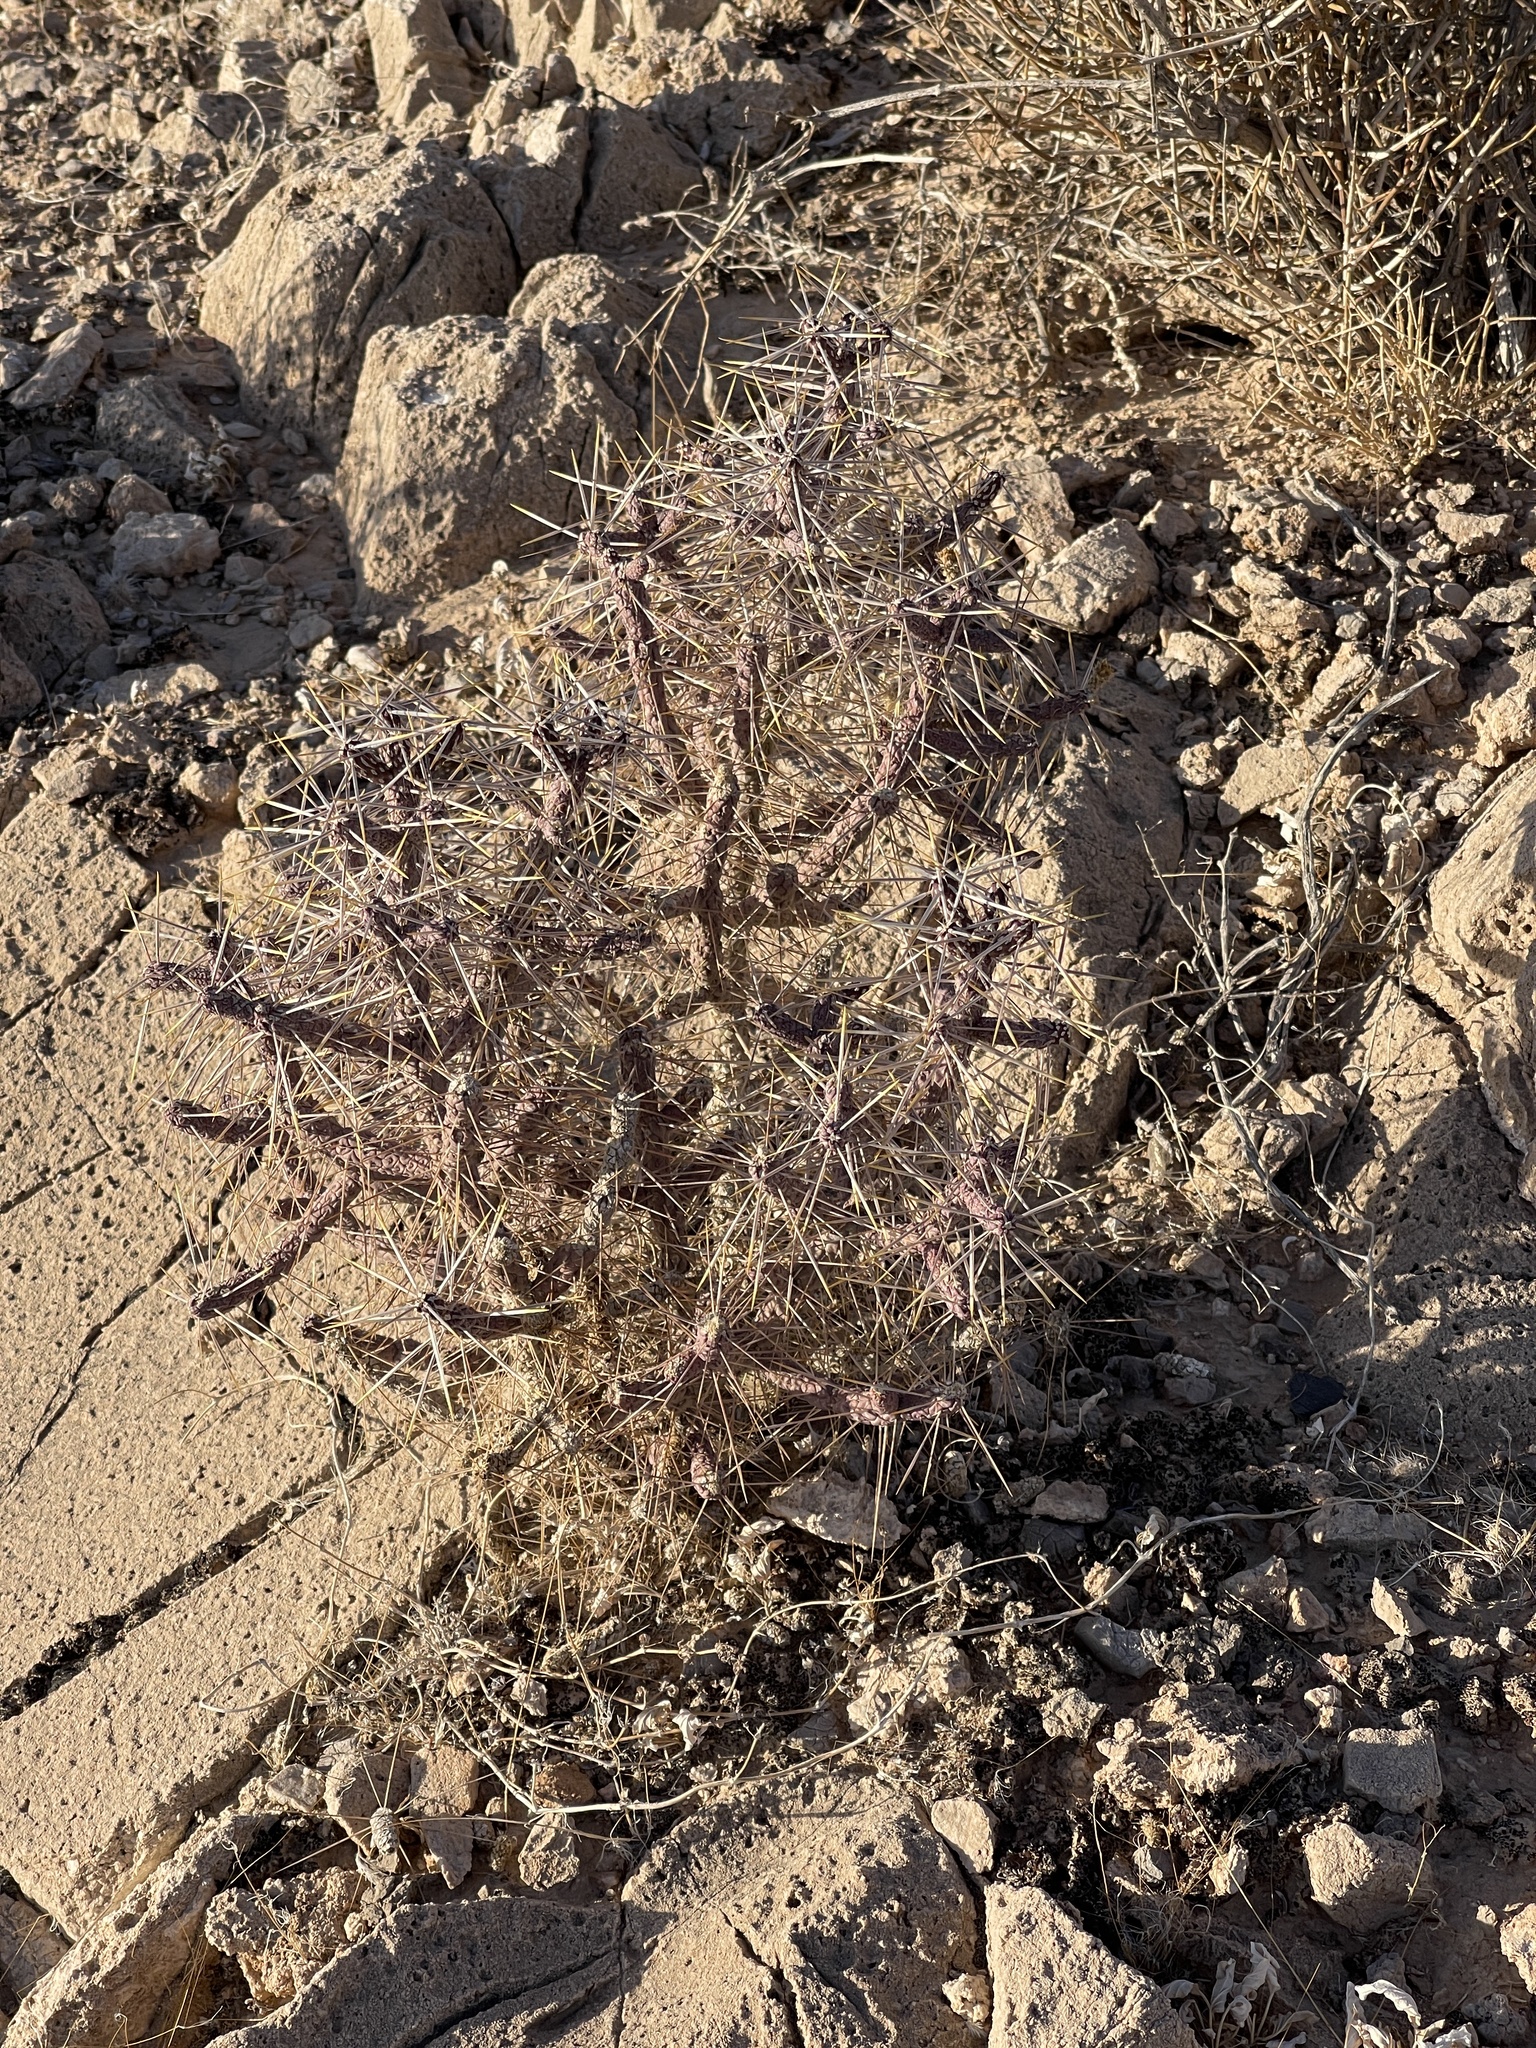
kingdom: Plantae
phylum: Tracheophyta
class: Magnoliopsida
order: Caryophyllales
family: Cactaceae
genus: Cylindropuntia
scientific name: Cylindropuntia ramosissima
